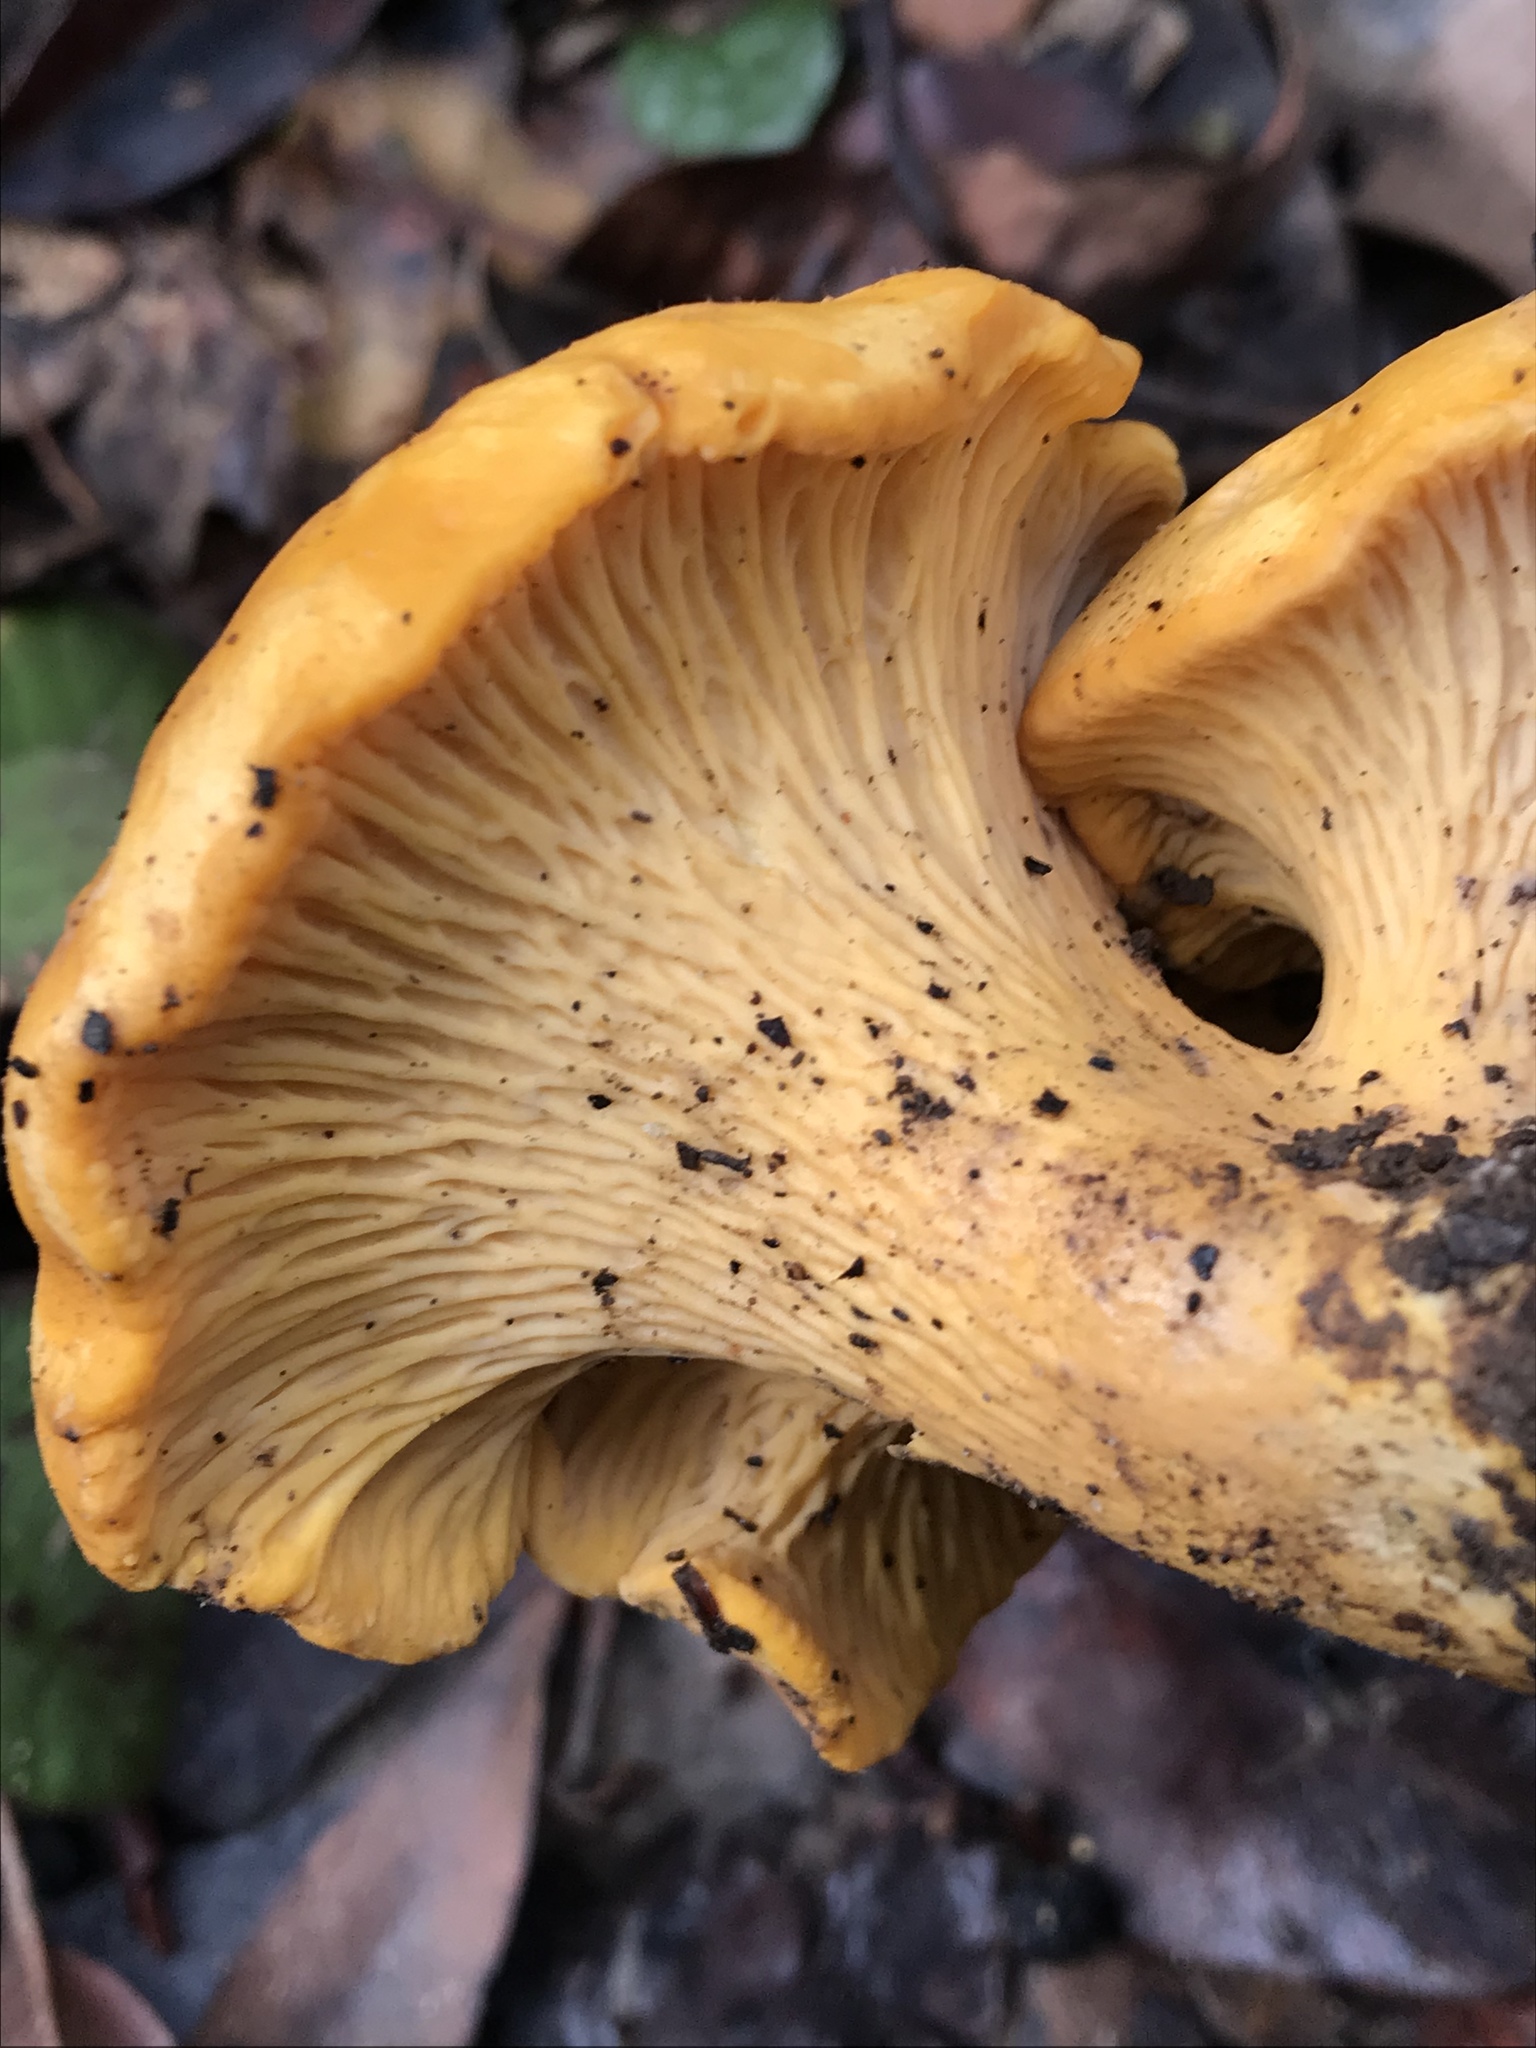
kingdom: Fungi
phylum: Basidiomycota
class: Agaricomycetes
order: Cantharellales
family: Hydnaceae
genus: Cantharellus
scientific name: Cantharellus californicus
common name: California golden chanterelle
